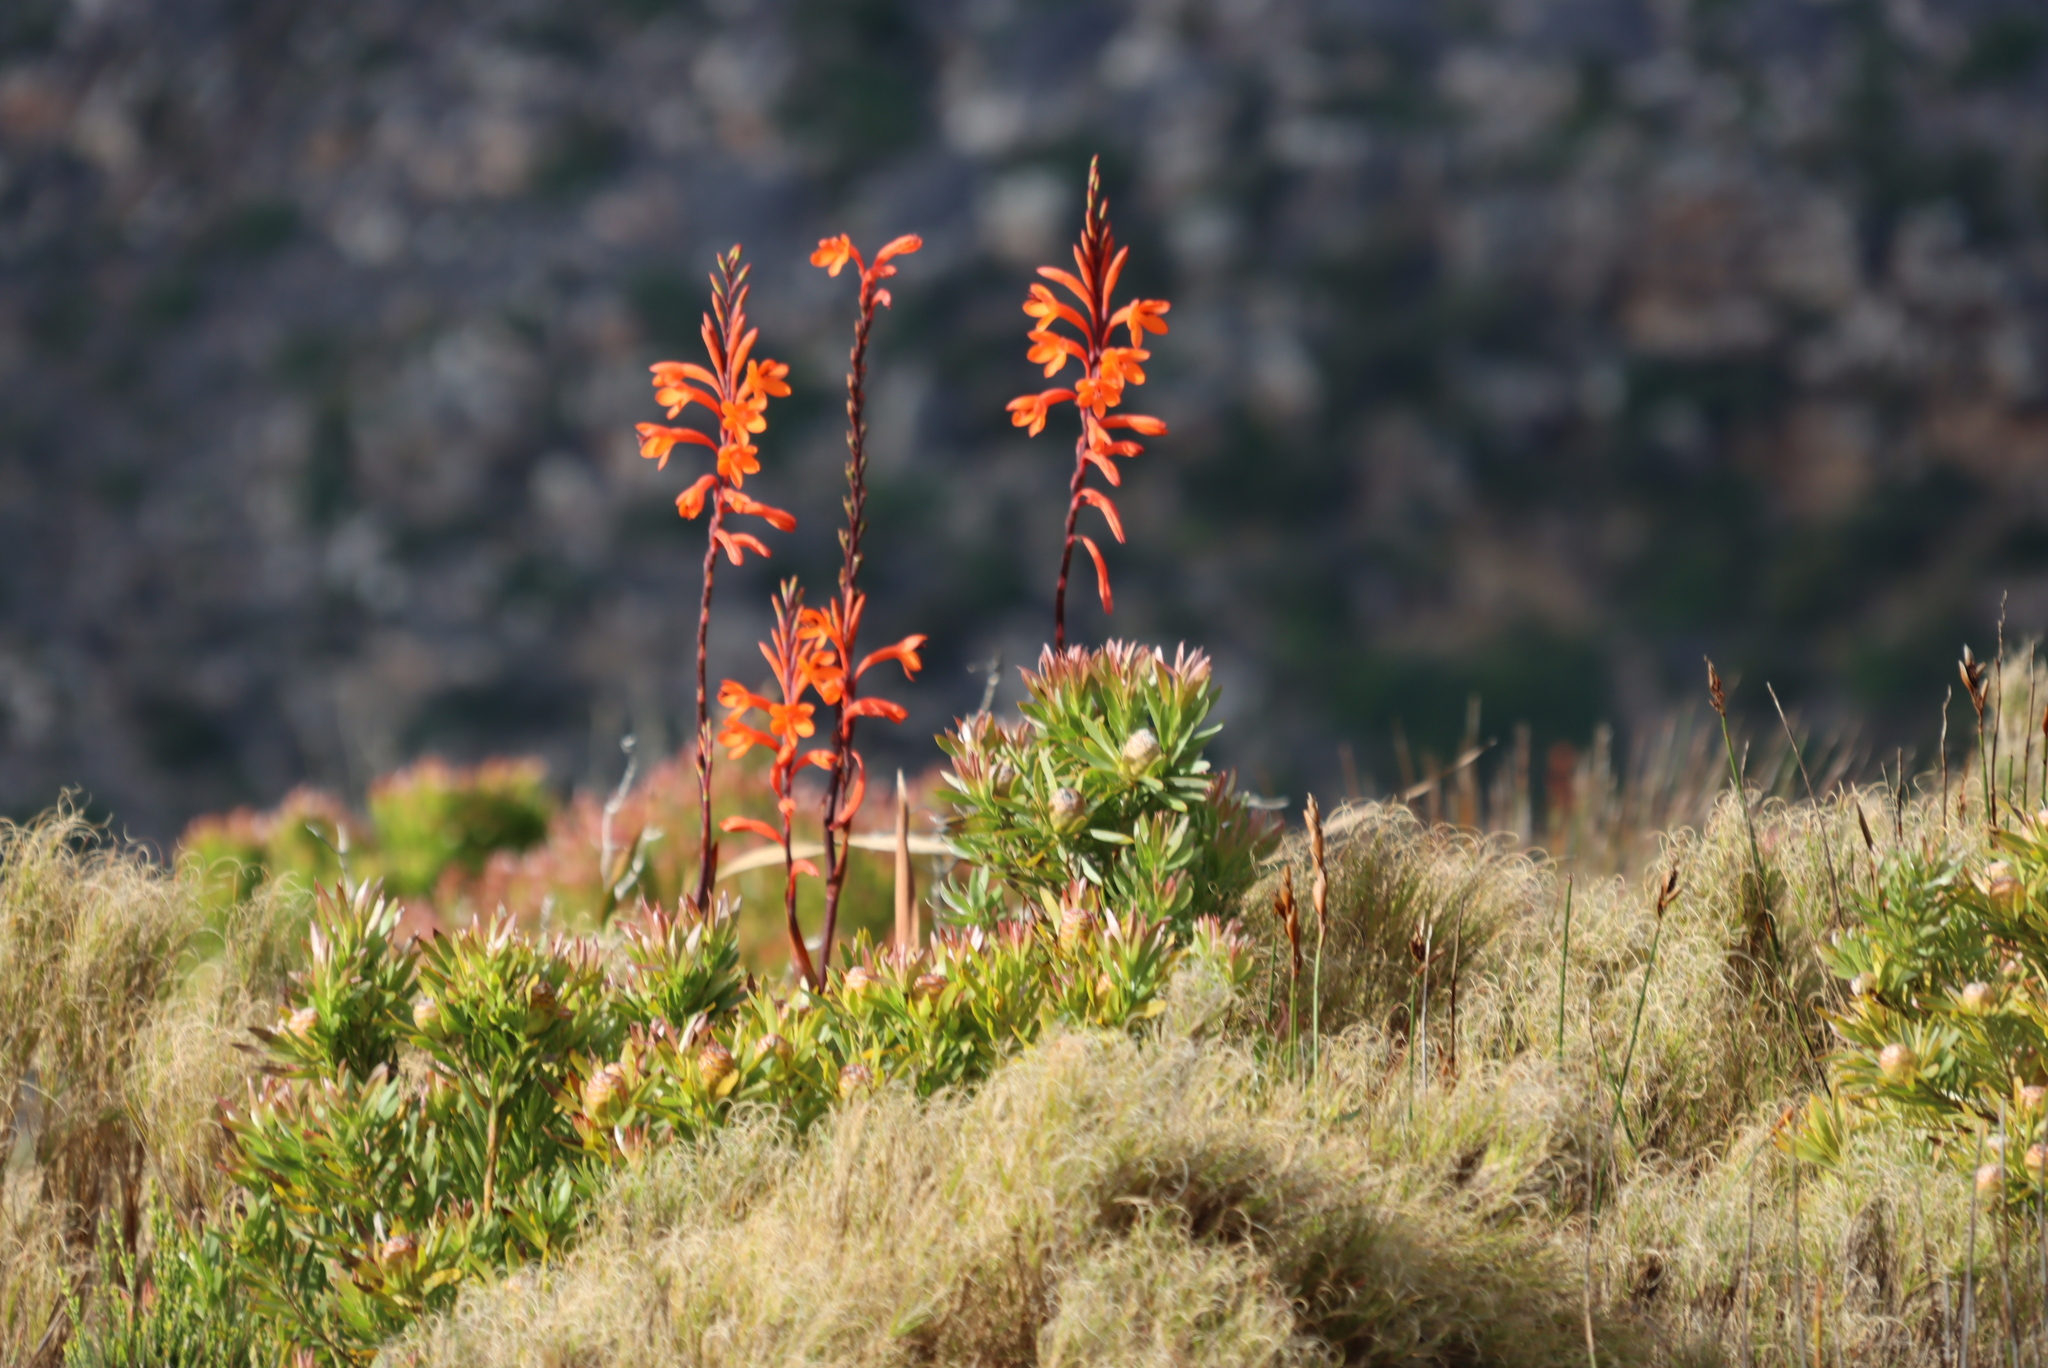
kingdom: Plantae
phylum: Tracheophyta
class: Liliopsida
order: Asparagales
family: Iridaceae
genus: Watsonia
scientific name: Watsonia tabularis
